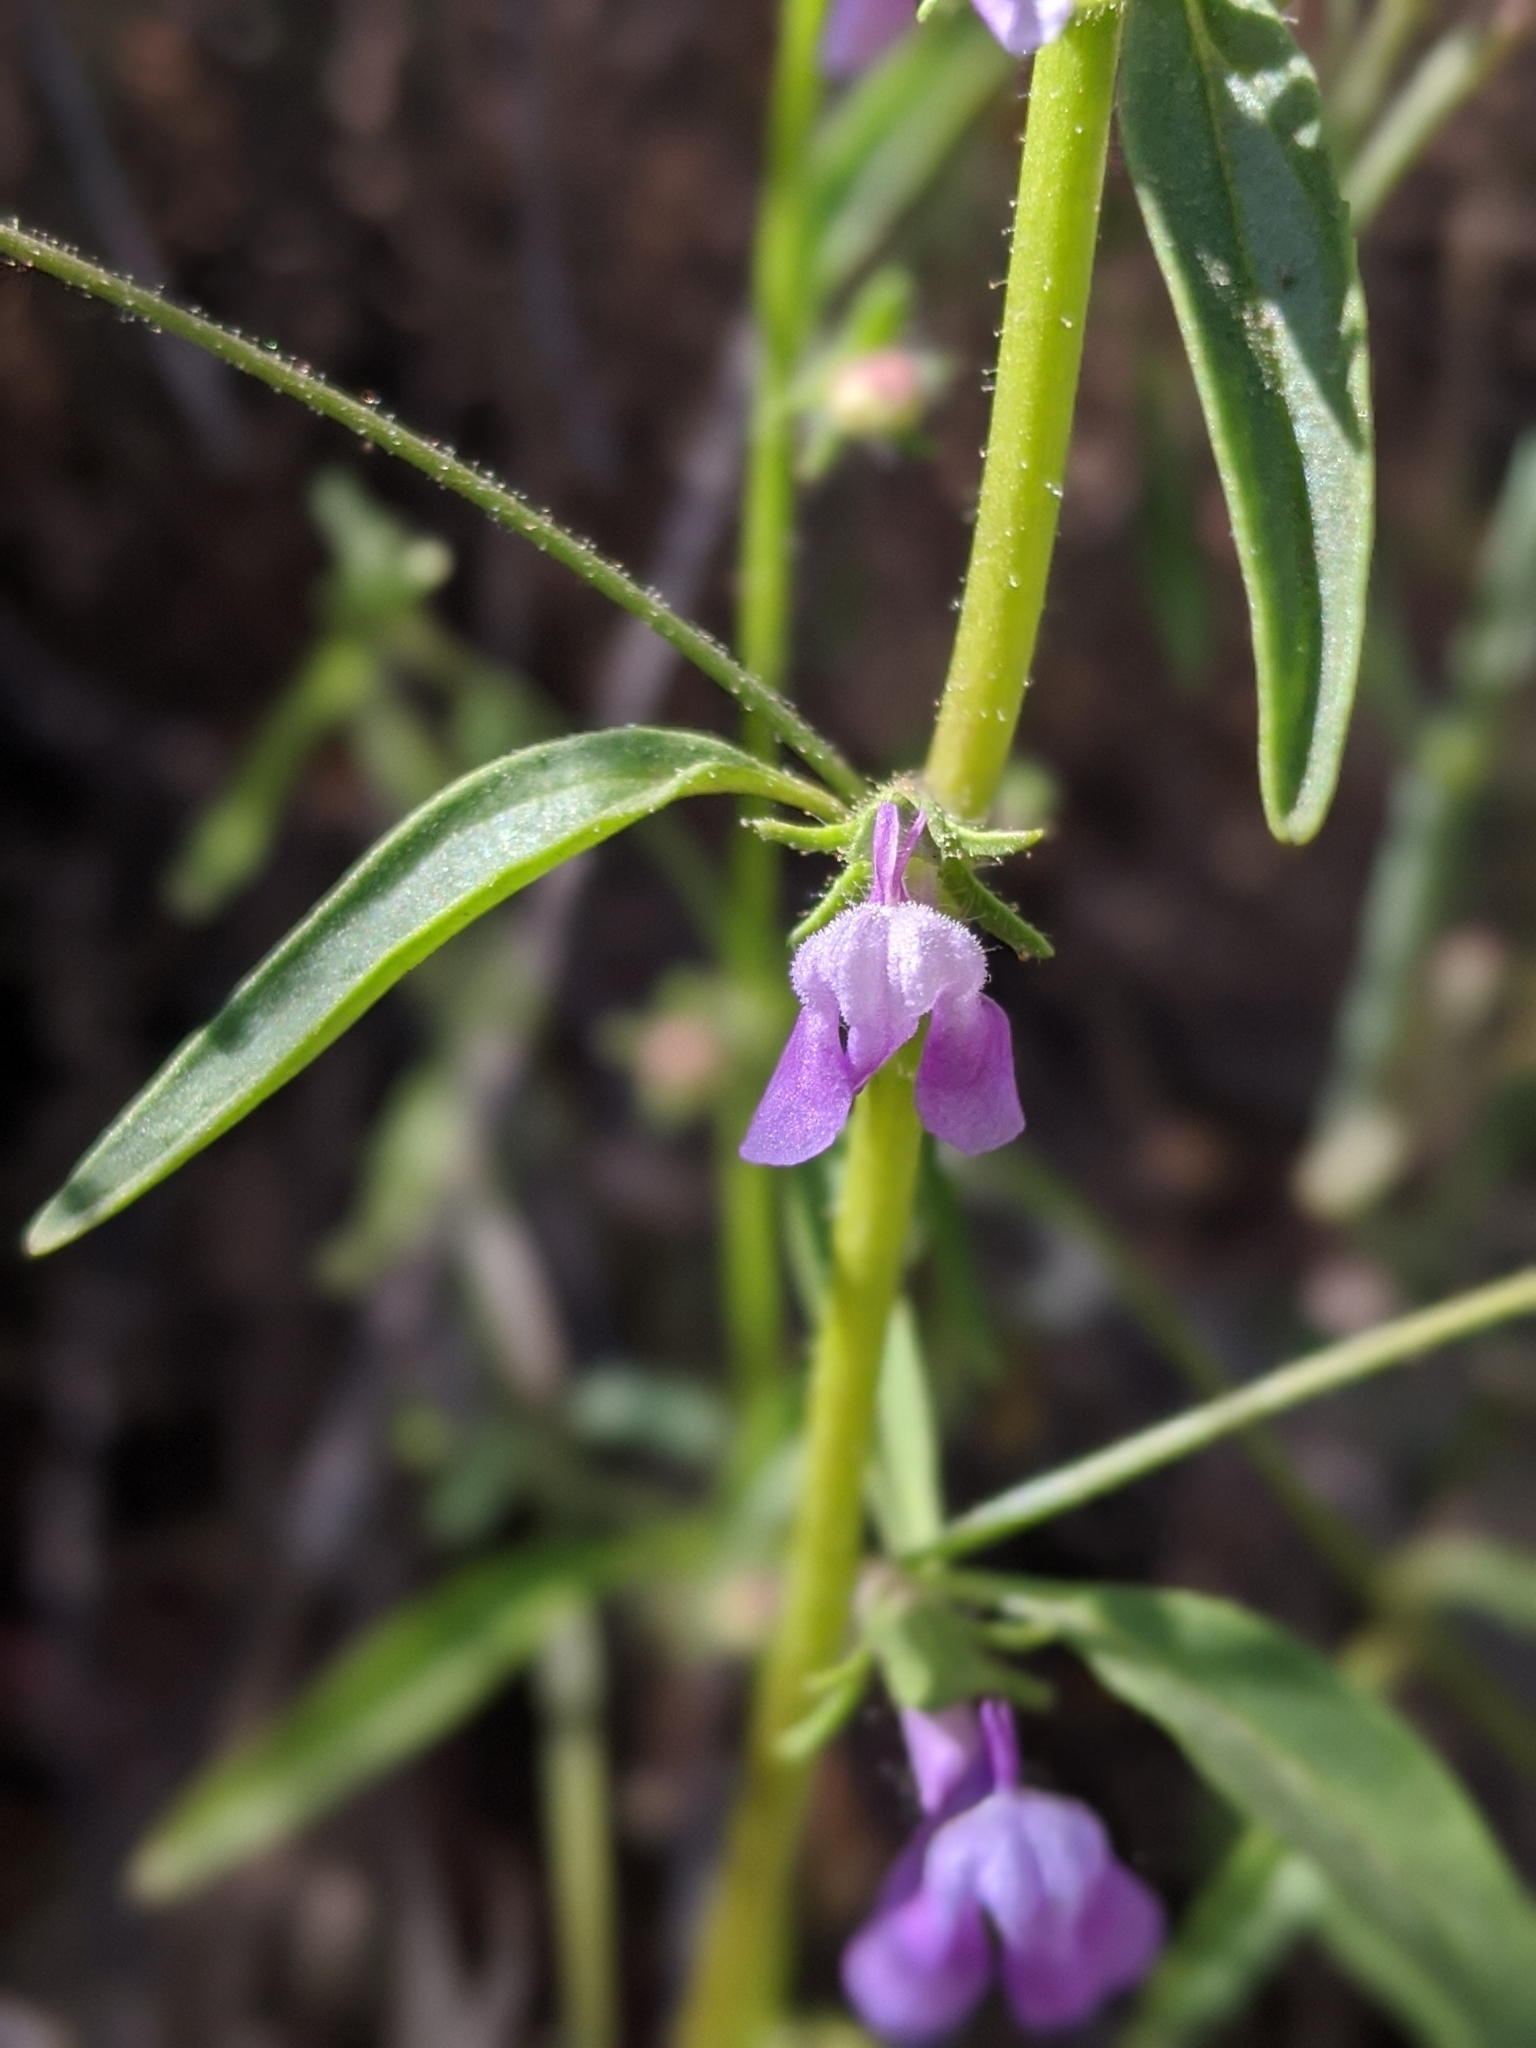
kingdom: Plantae
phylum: Tracheophyta
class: Magnoliopsida
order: Lamiales
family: Plantaginaceae
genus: Sairocarpus
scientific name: Sairocarpus vexillocalyculatus
